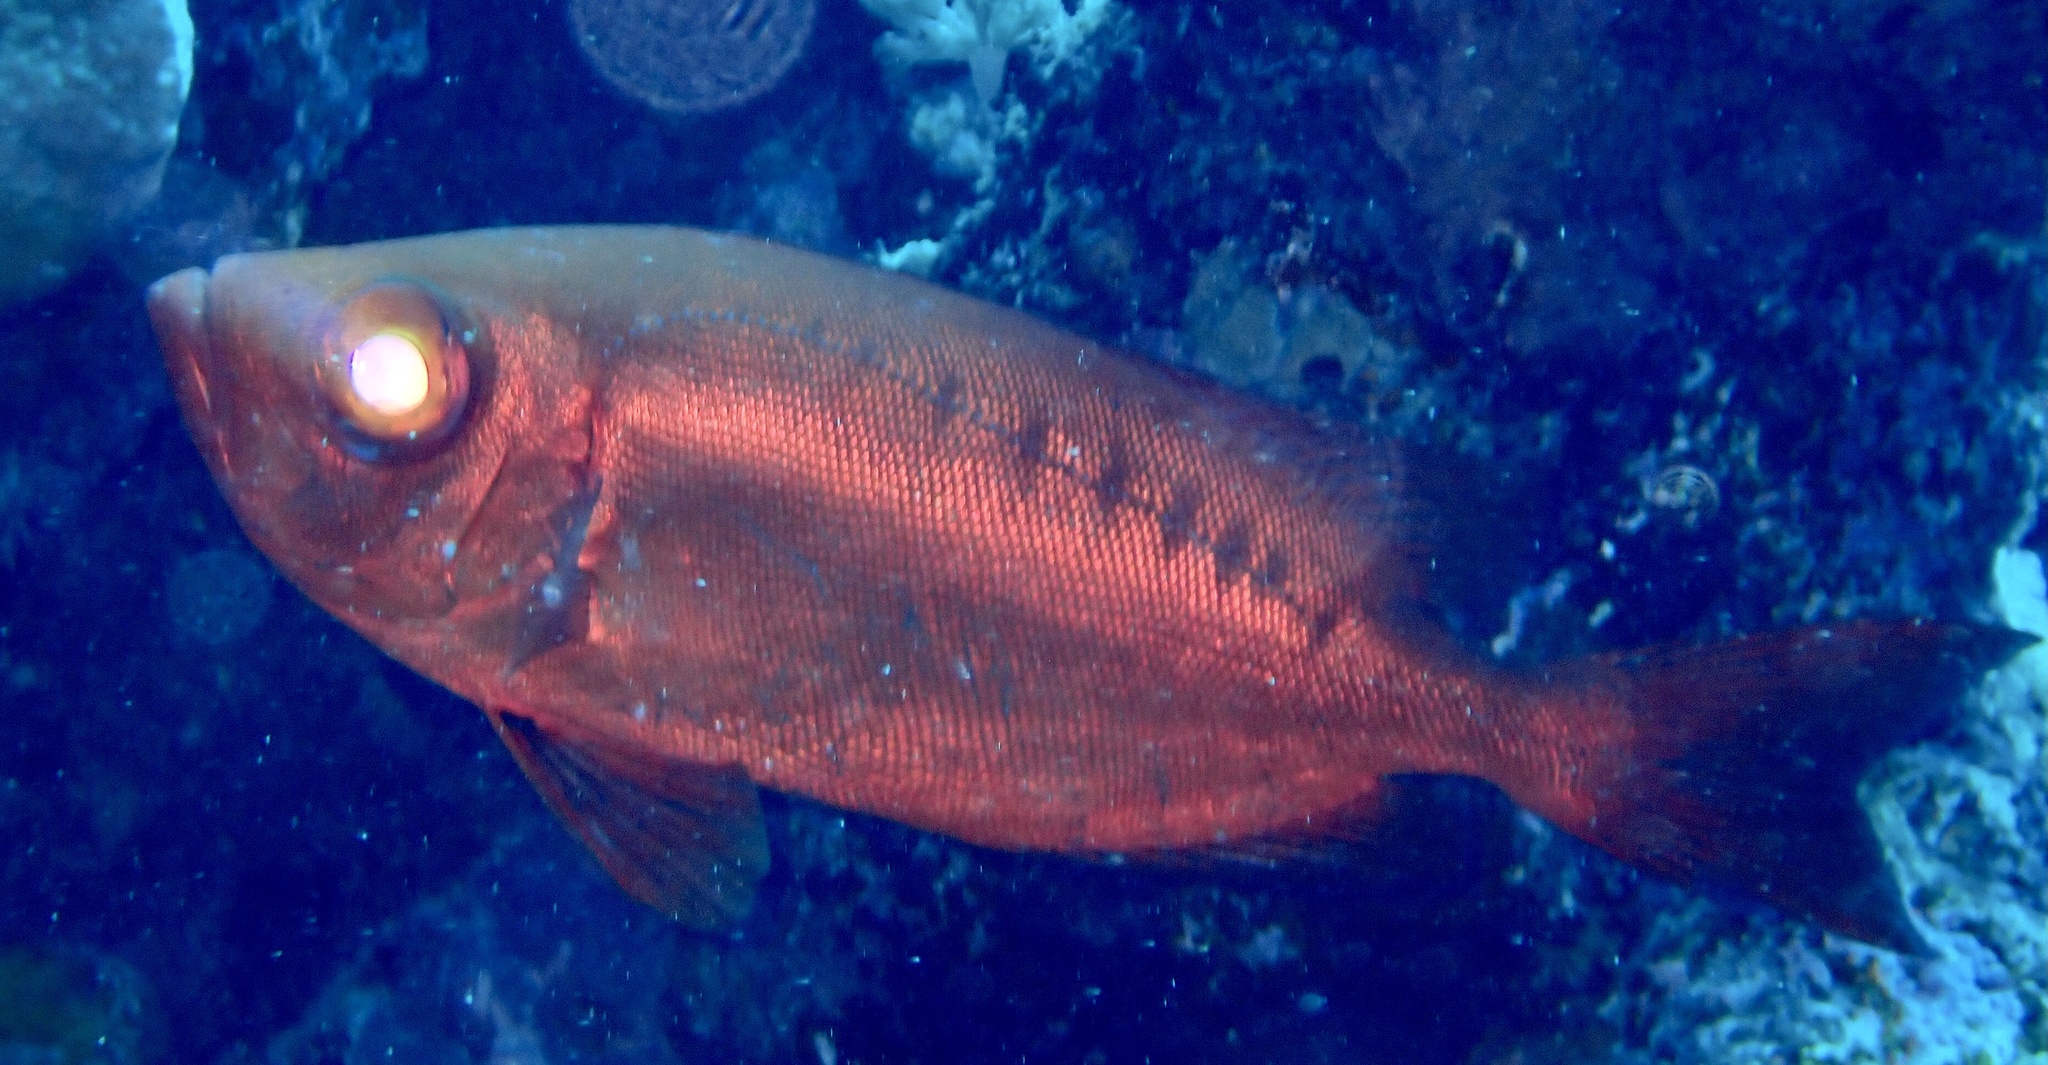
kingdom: Animalia
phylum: Chordata
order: Perciformes
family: Priacanthidae
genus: Priacanthus
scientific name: Priacanthus hamrur
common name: Moontail bullseye
